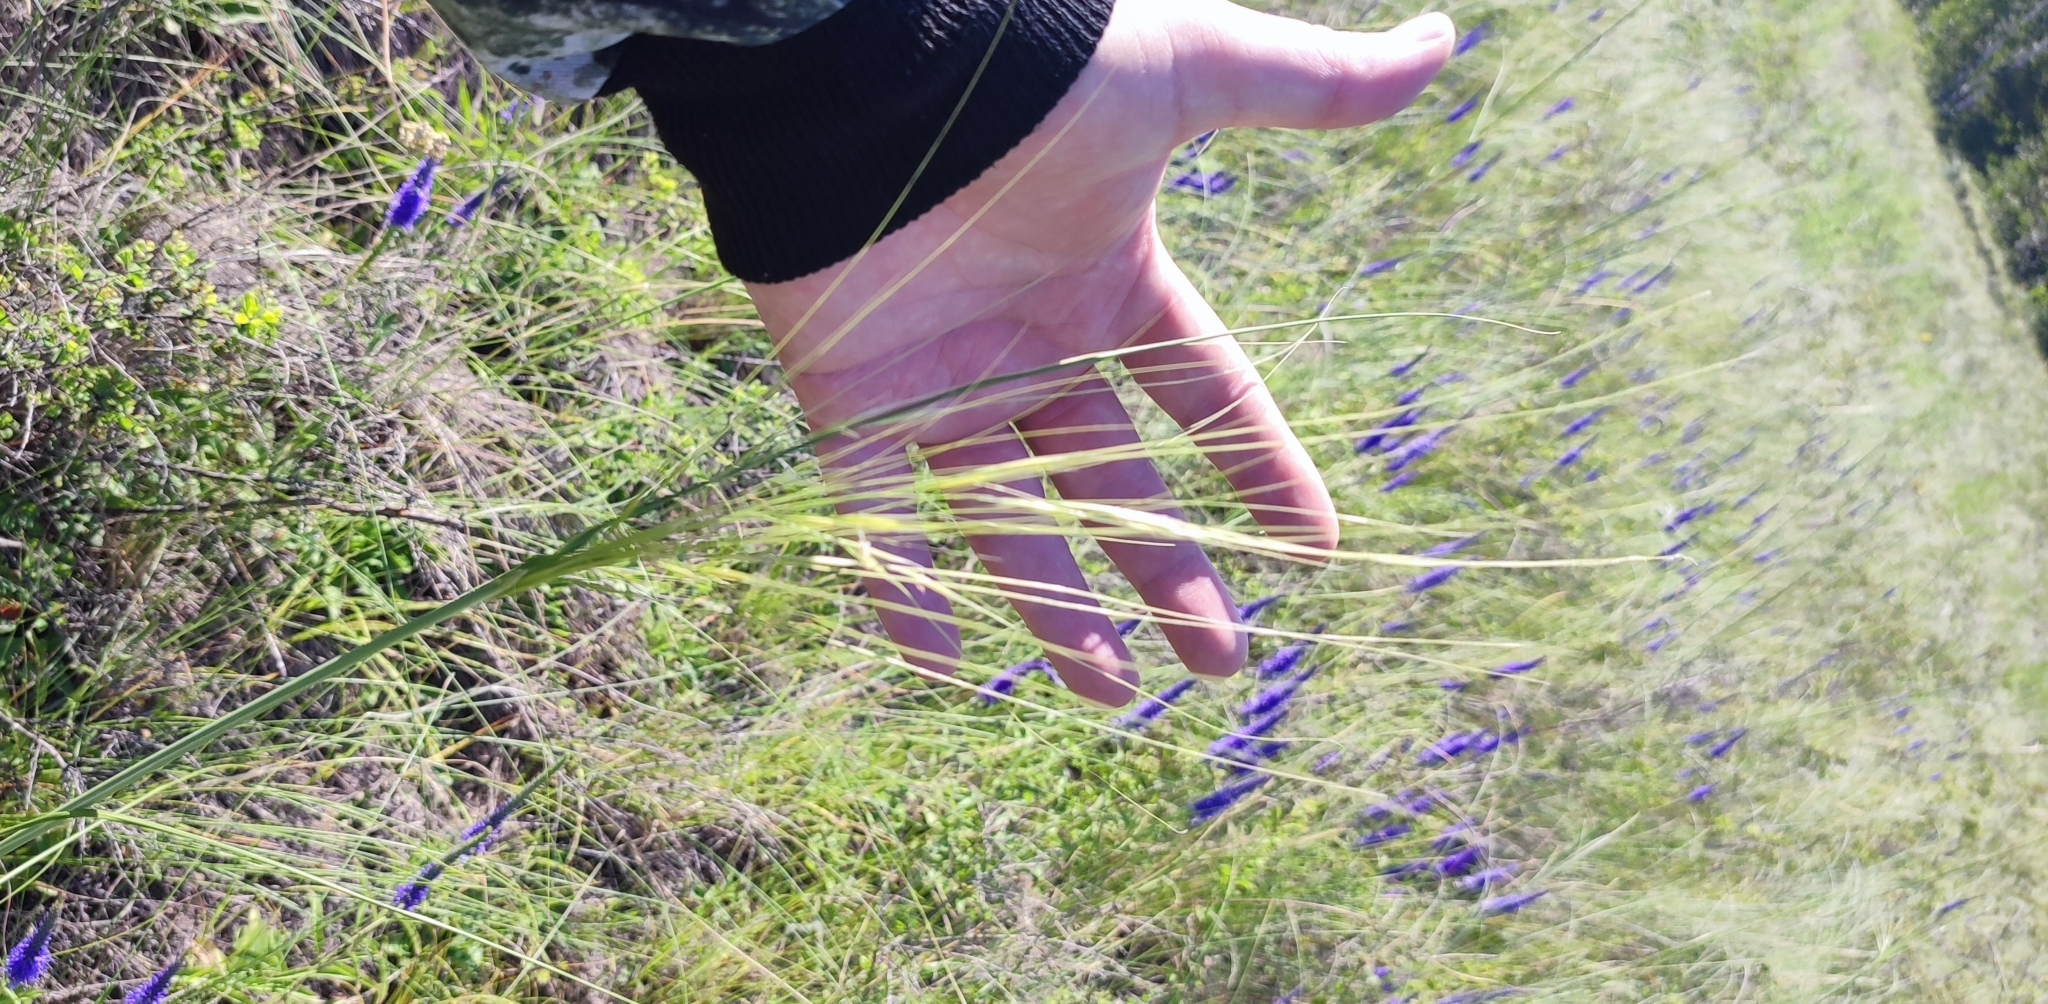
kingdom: Plantae
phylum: Tracheophyta
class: Liliopsida
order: Poales
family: Poaceae
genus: Stipa
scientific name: Stipa capillata
